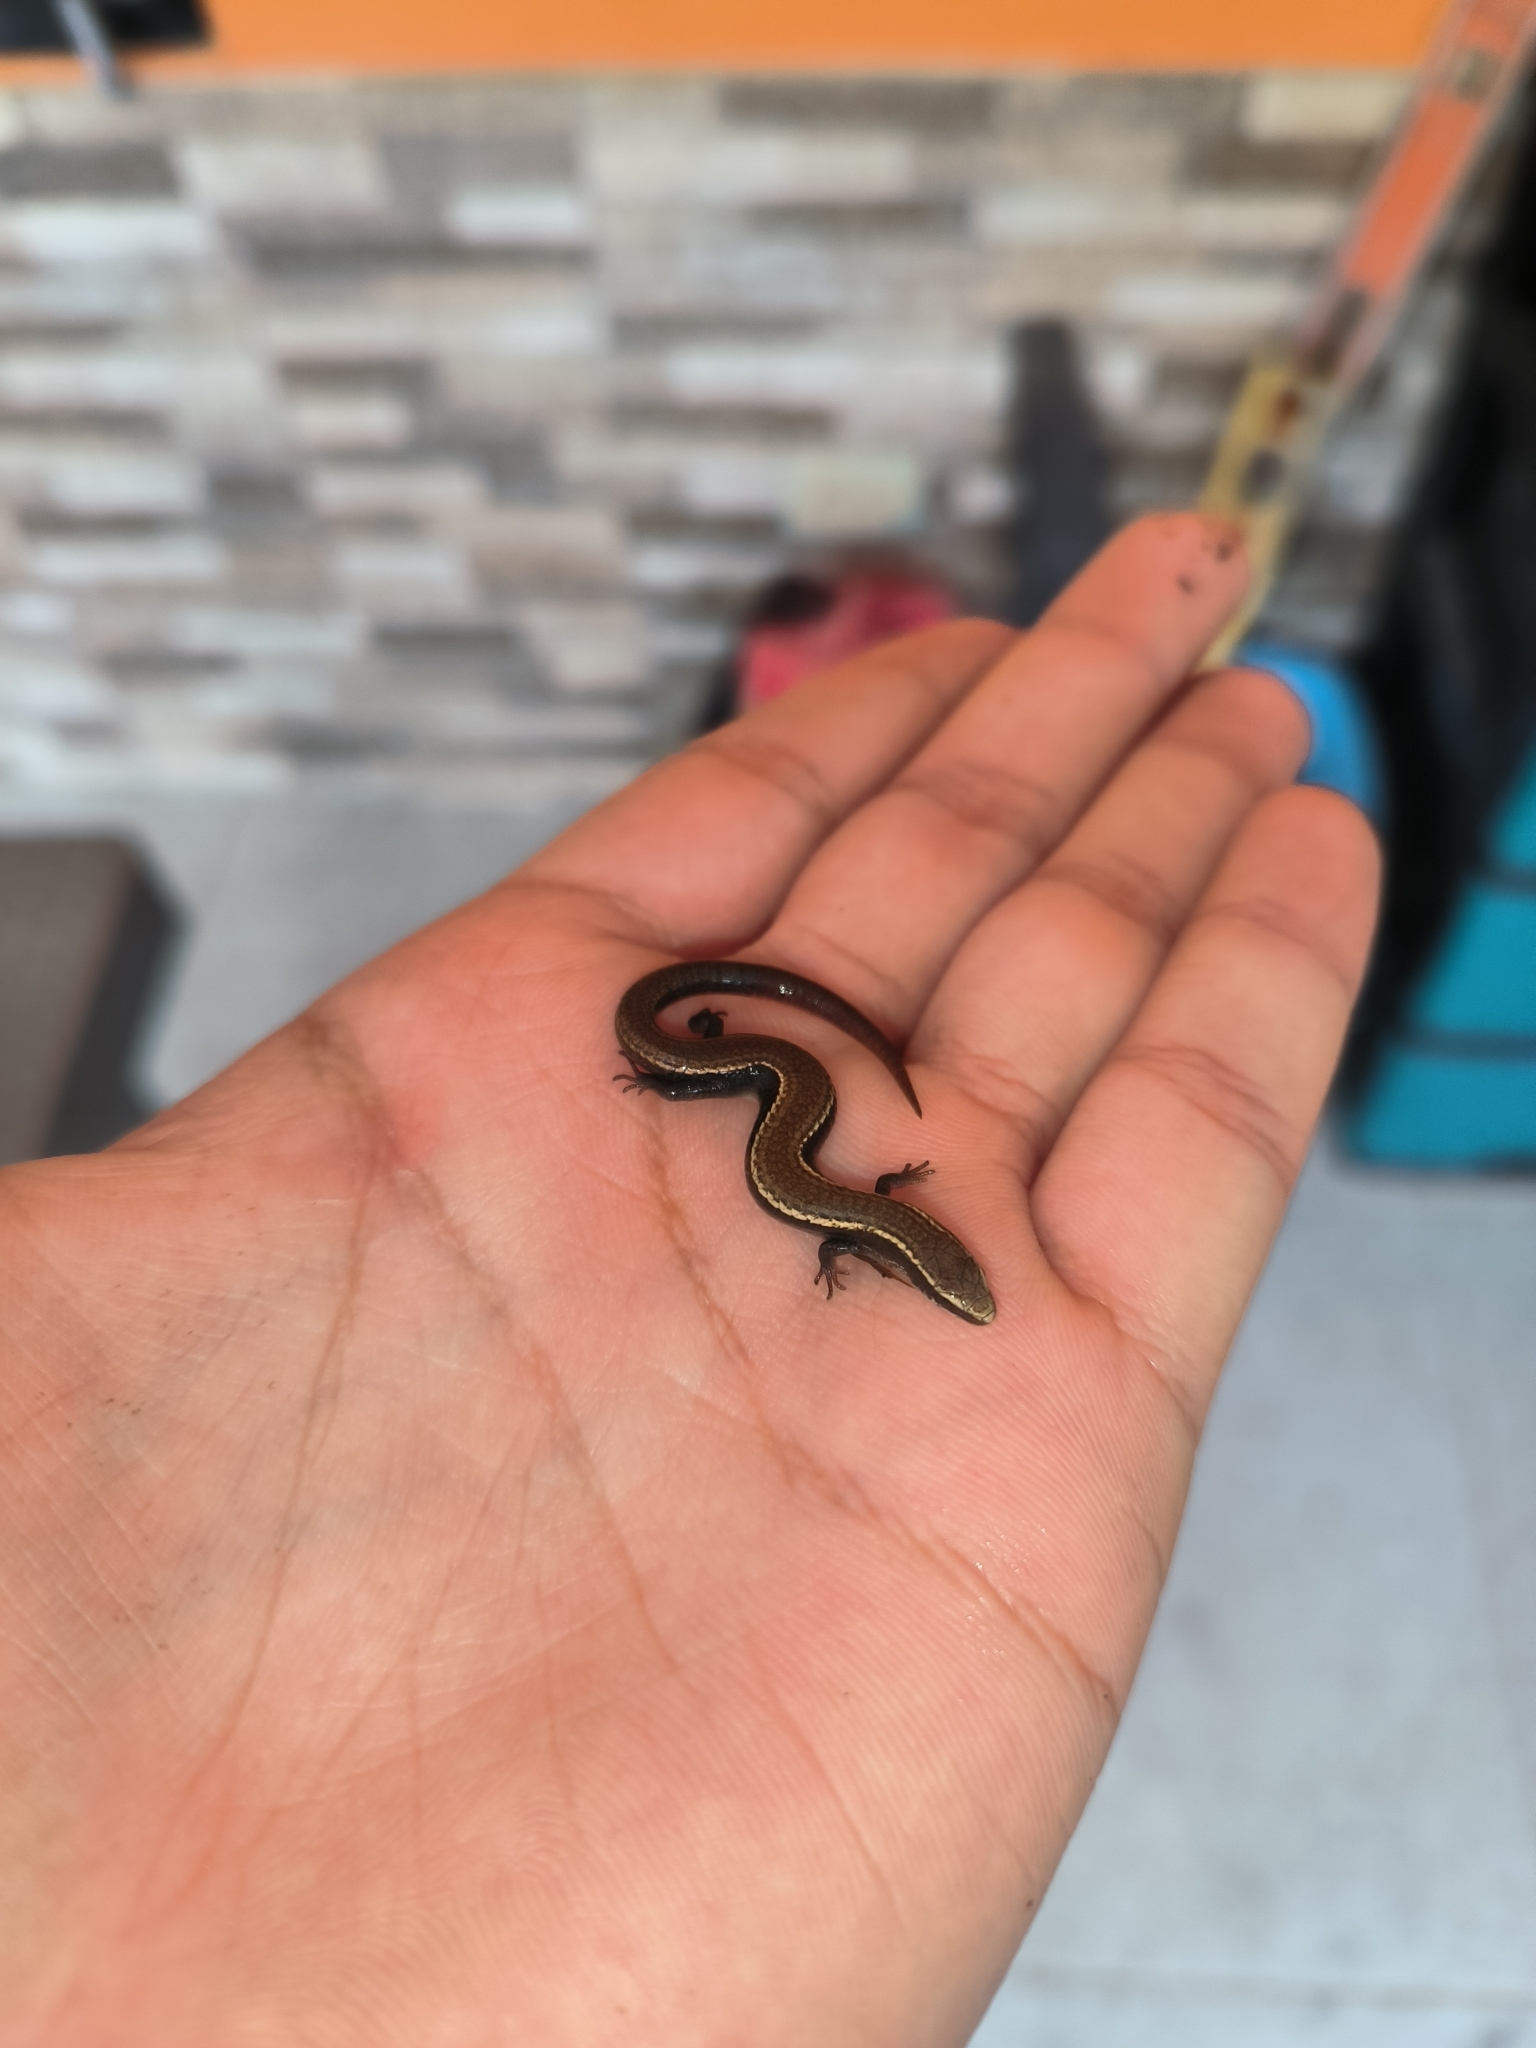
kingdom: Animalia
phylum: Chordata
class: Squamata
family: Gymnophthalmidae
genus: Gymnophthalmus
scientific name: Gymnophthalmus speciosus
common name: Golden spectacled tegu
